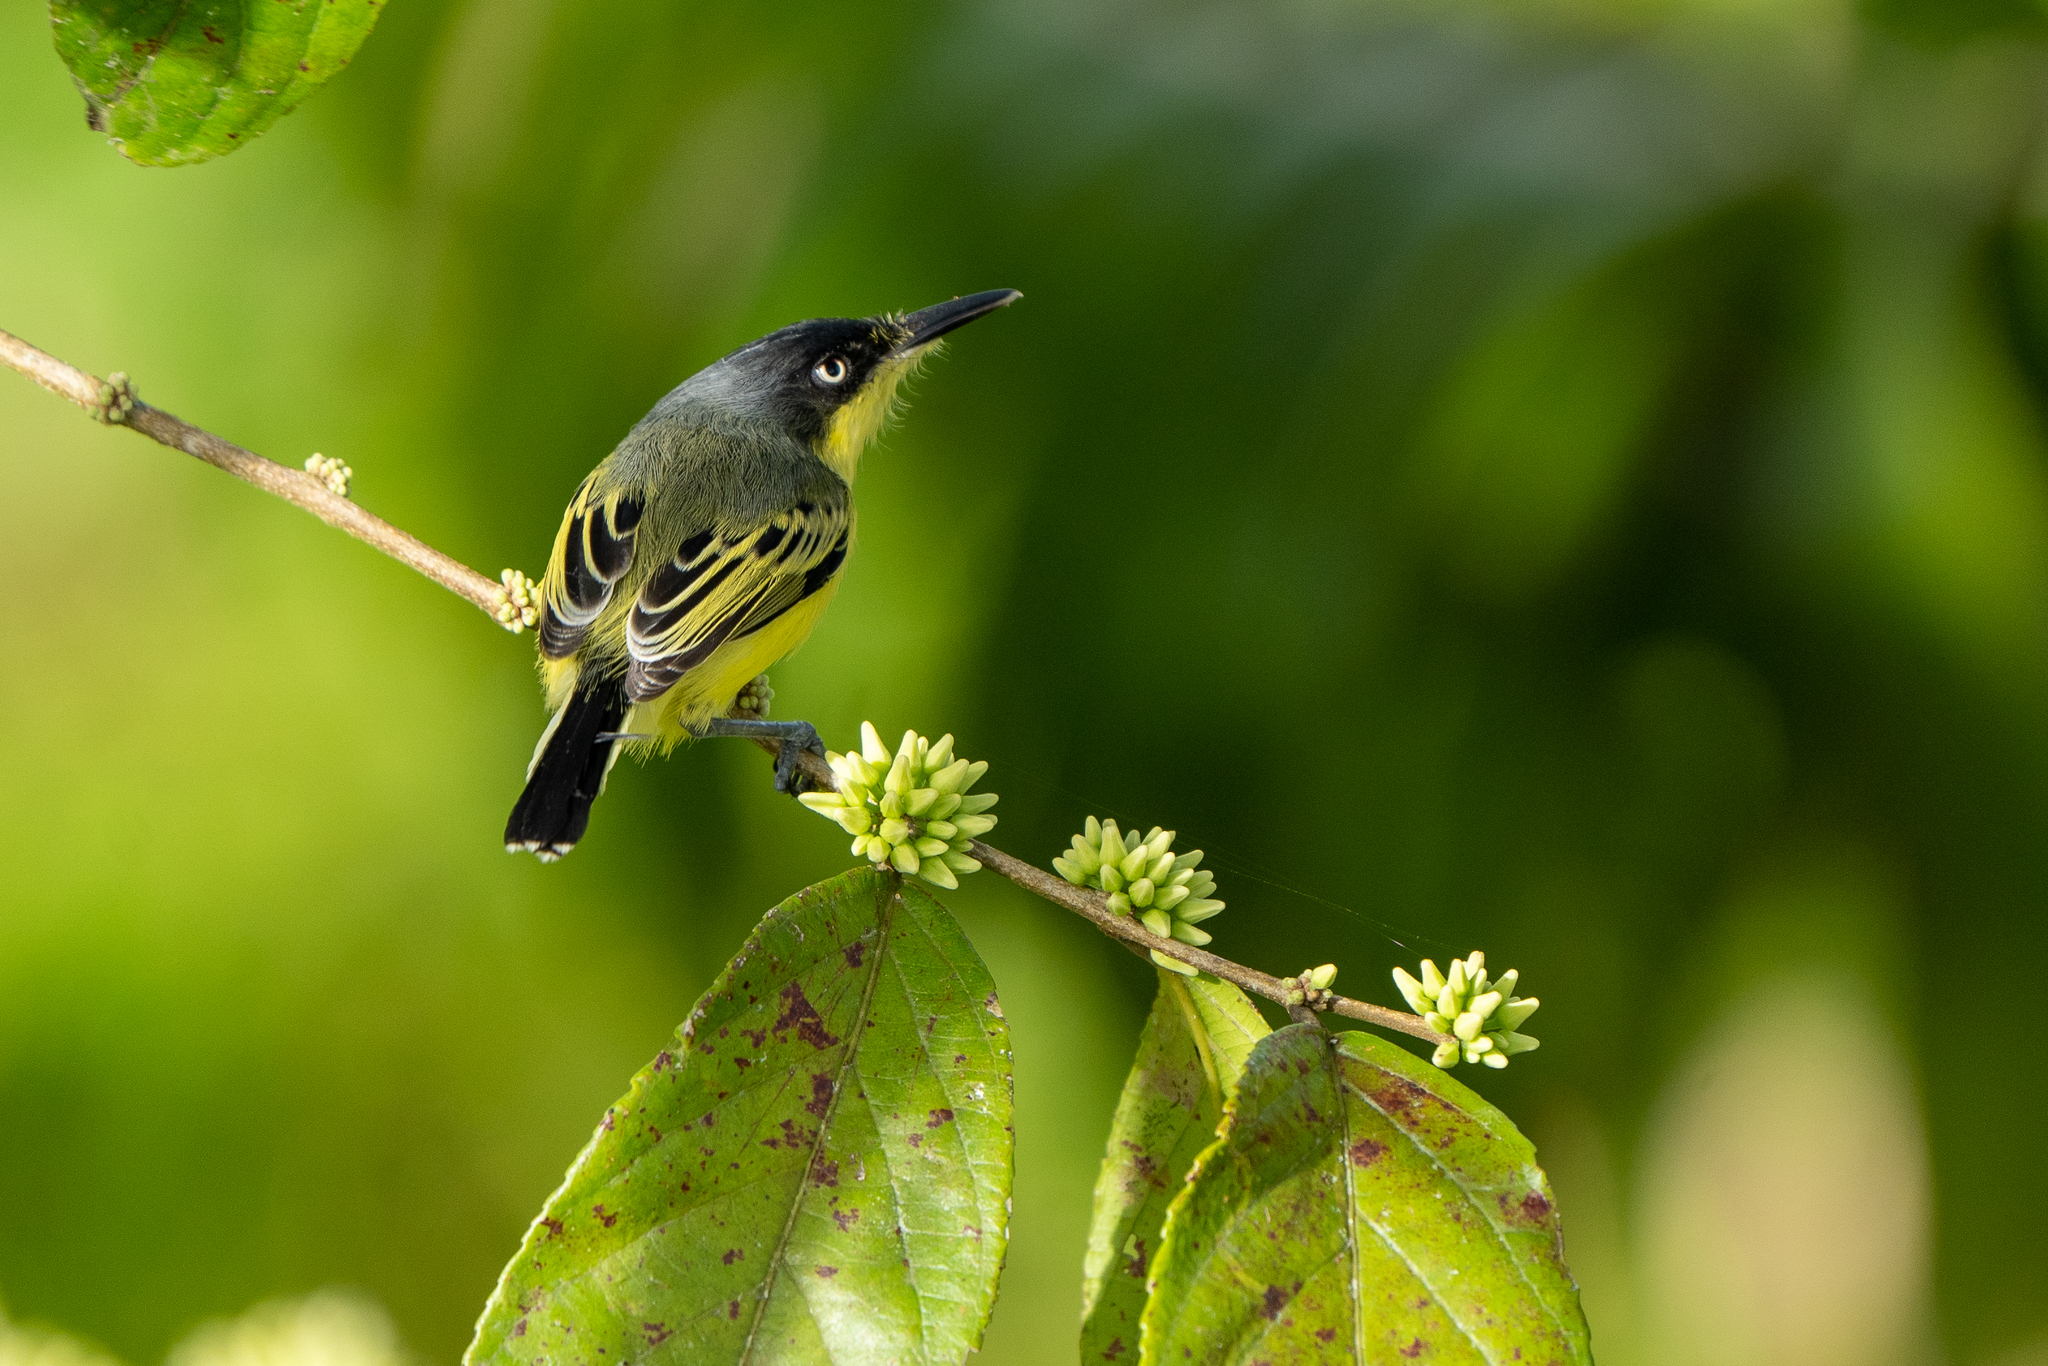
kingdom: Animalia
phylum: Chordata
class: Aves
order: Passeriformes
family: Tyrannidae
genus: Todirostrum
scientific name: Todirostrum cinereum
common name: Common tody-flycatcher
